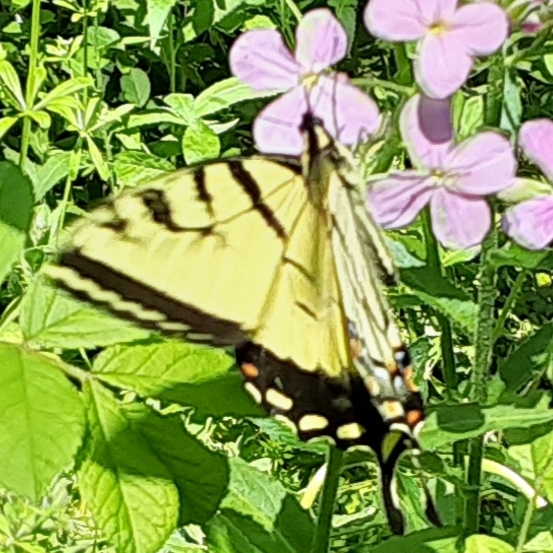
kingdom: Animalia
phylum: Arthropoda
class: Insecta
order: Lepidoptera
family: Papilionidae
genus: Papilio
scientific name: Papilio glaucus
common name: Tiger swallowtail
